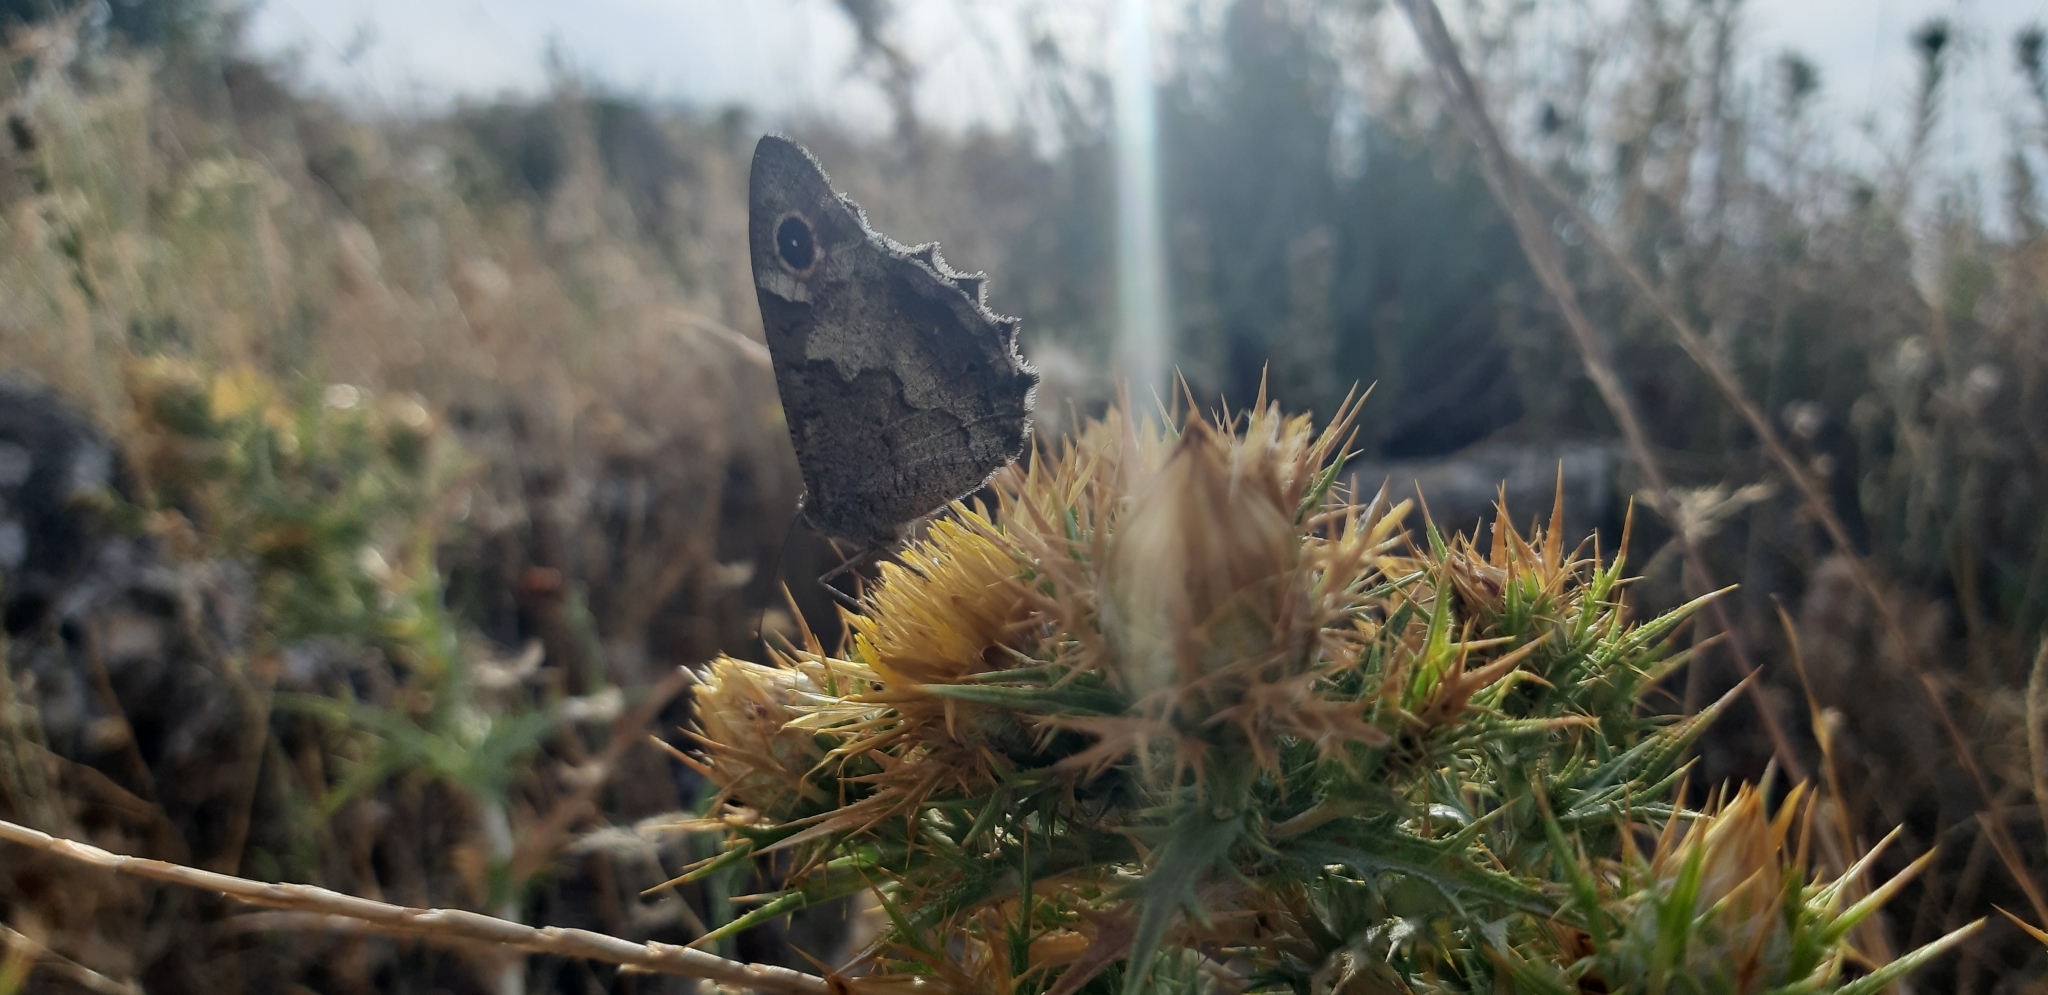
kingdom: Animalia
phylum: Arthropoda
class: Insecta
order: Lepidoptera
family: Nymphalidae
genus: Hipparchia
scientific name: Hipparchia statilinus
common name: Tree grayling
